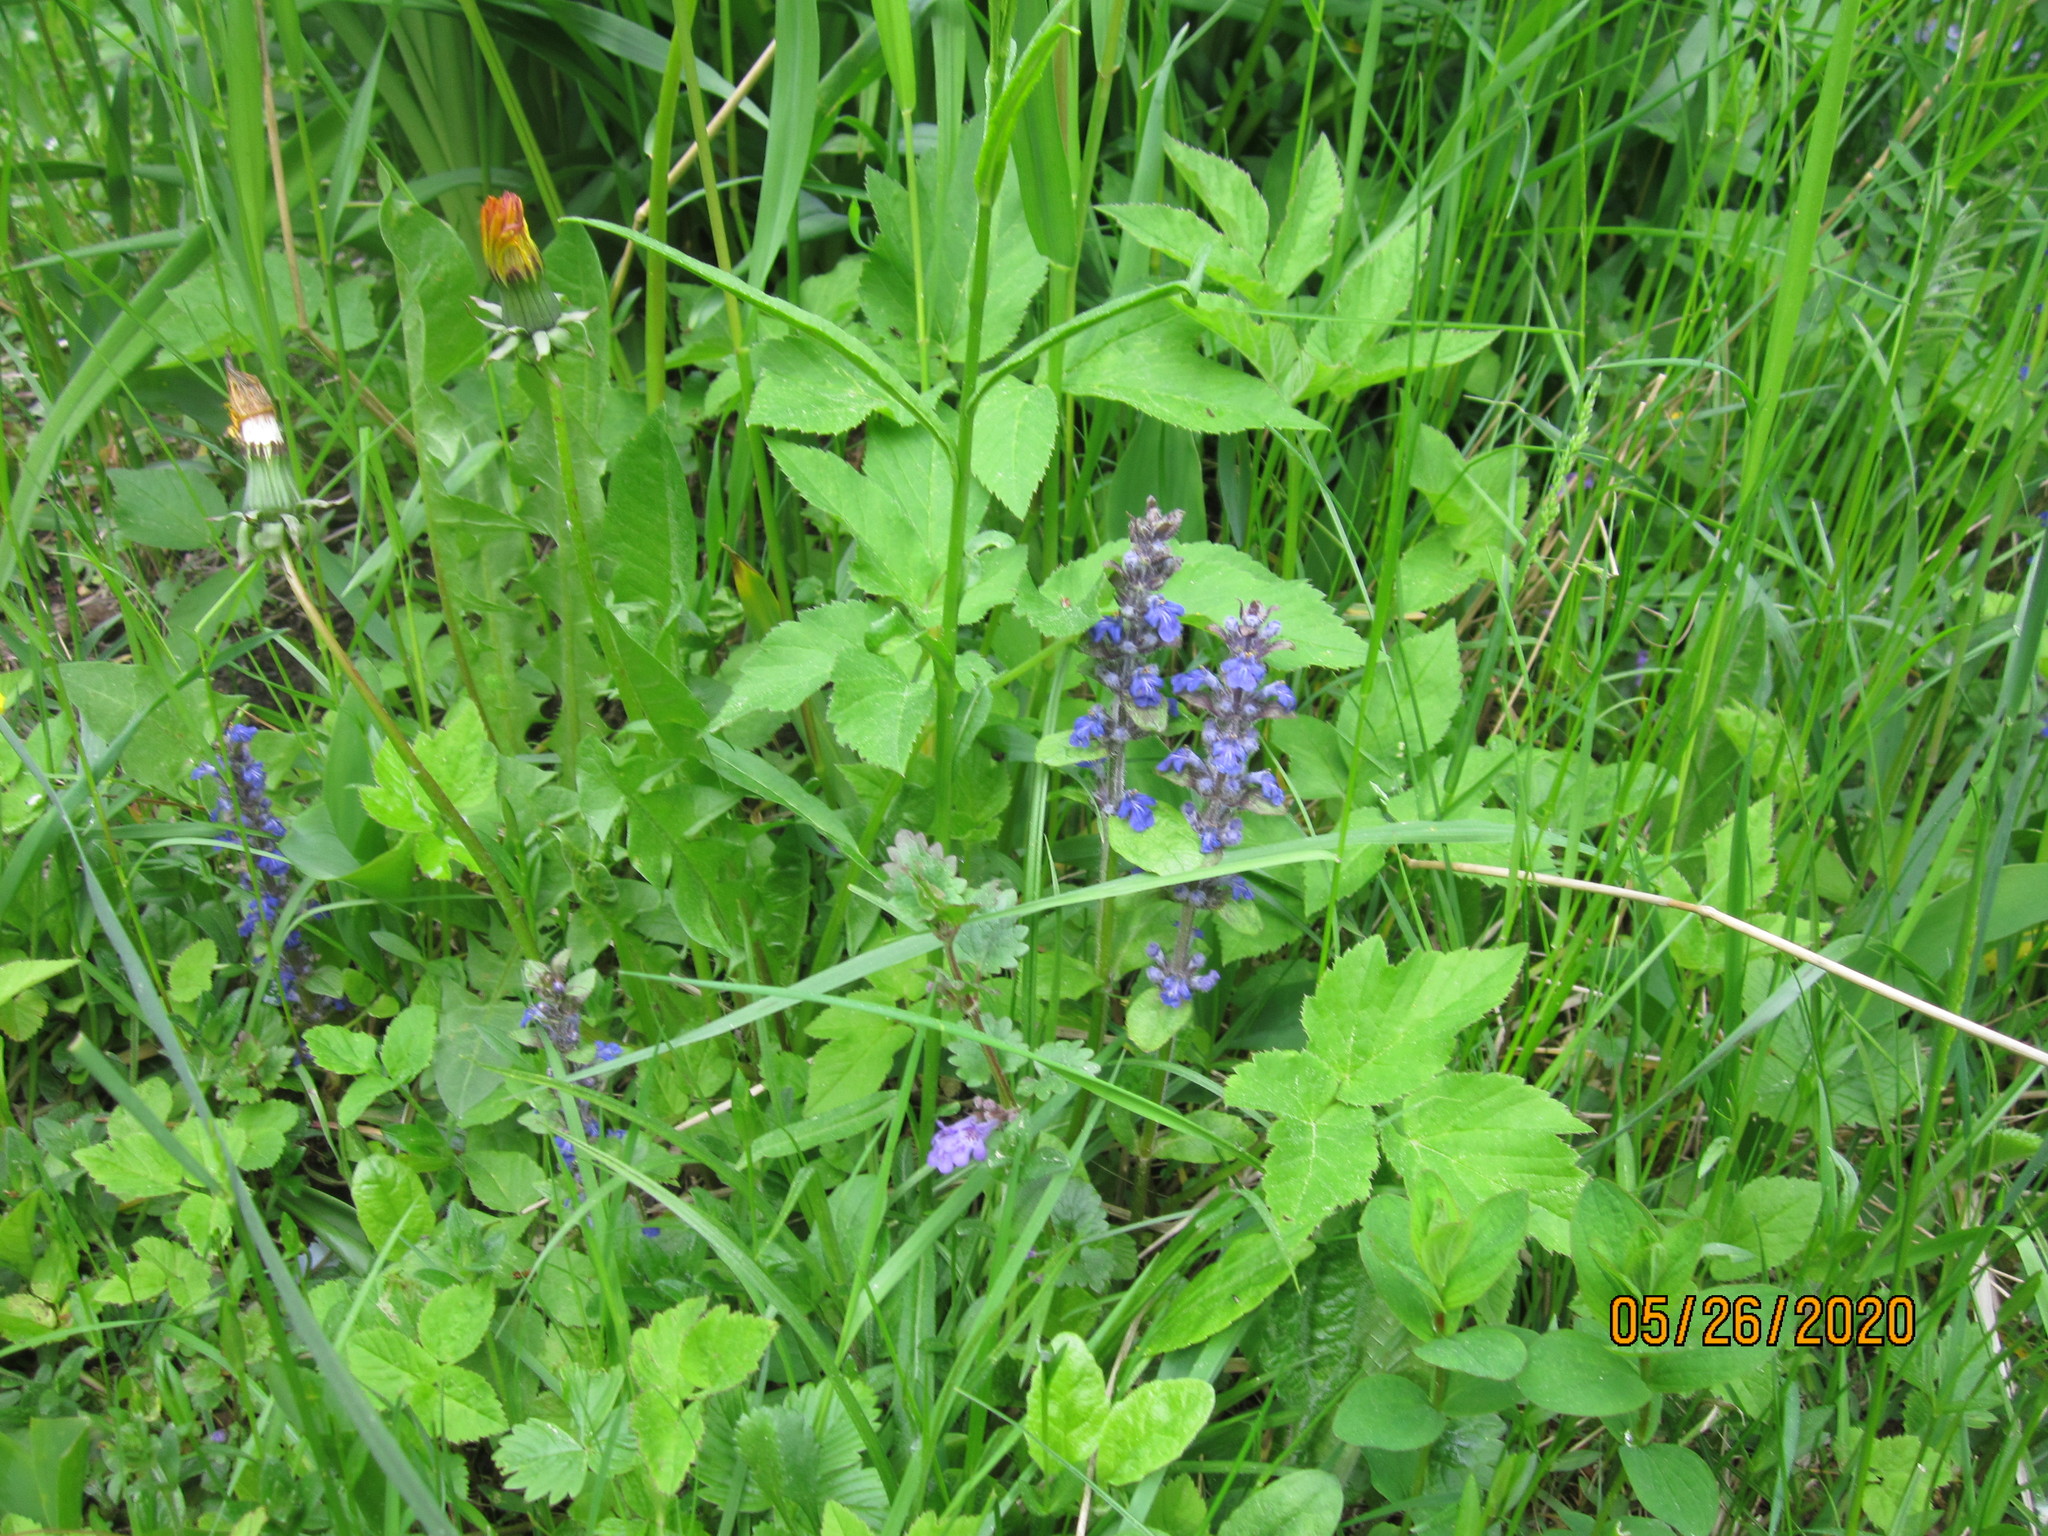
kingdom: Plantae
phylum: Tracheophyta
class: Magnoliopsida
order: Lamiales
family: Lamiaceae
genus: Ajuga
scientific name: Ajuga reptans
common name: Bugle
